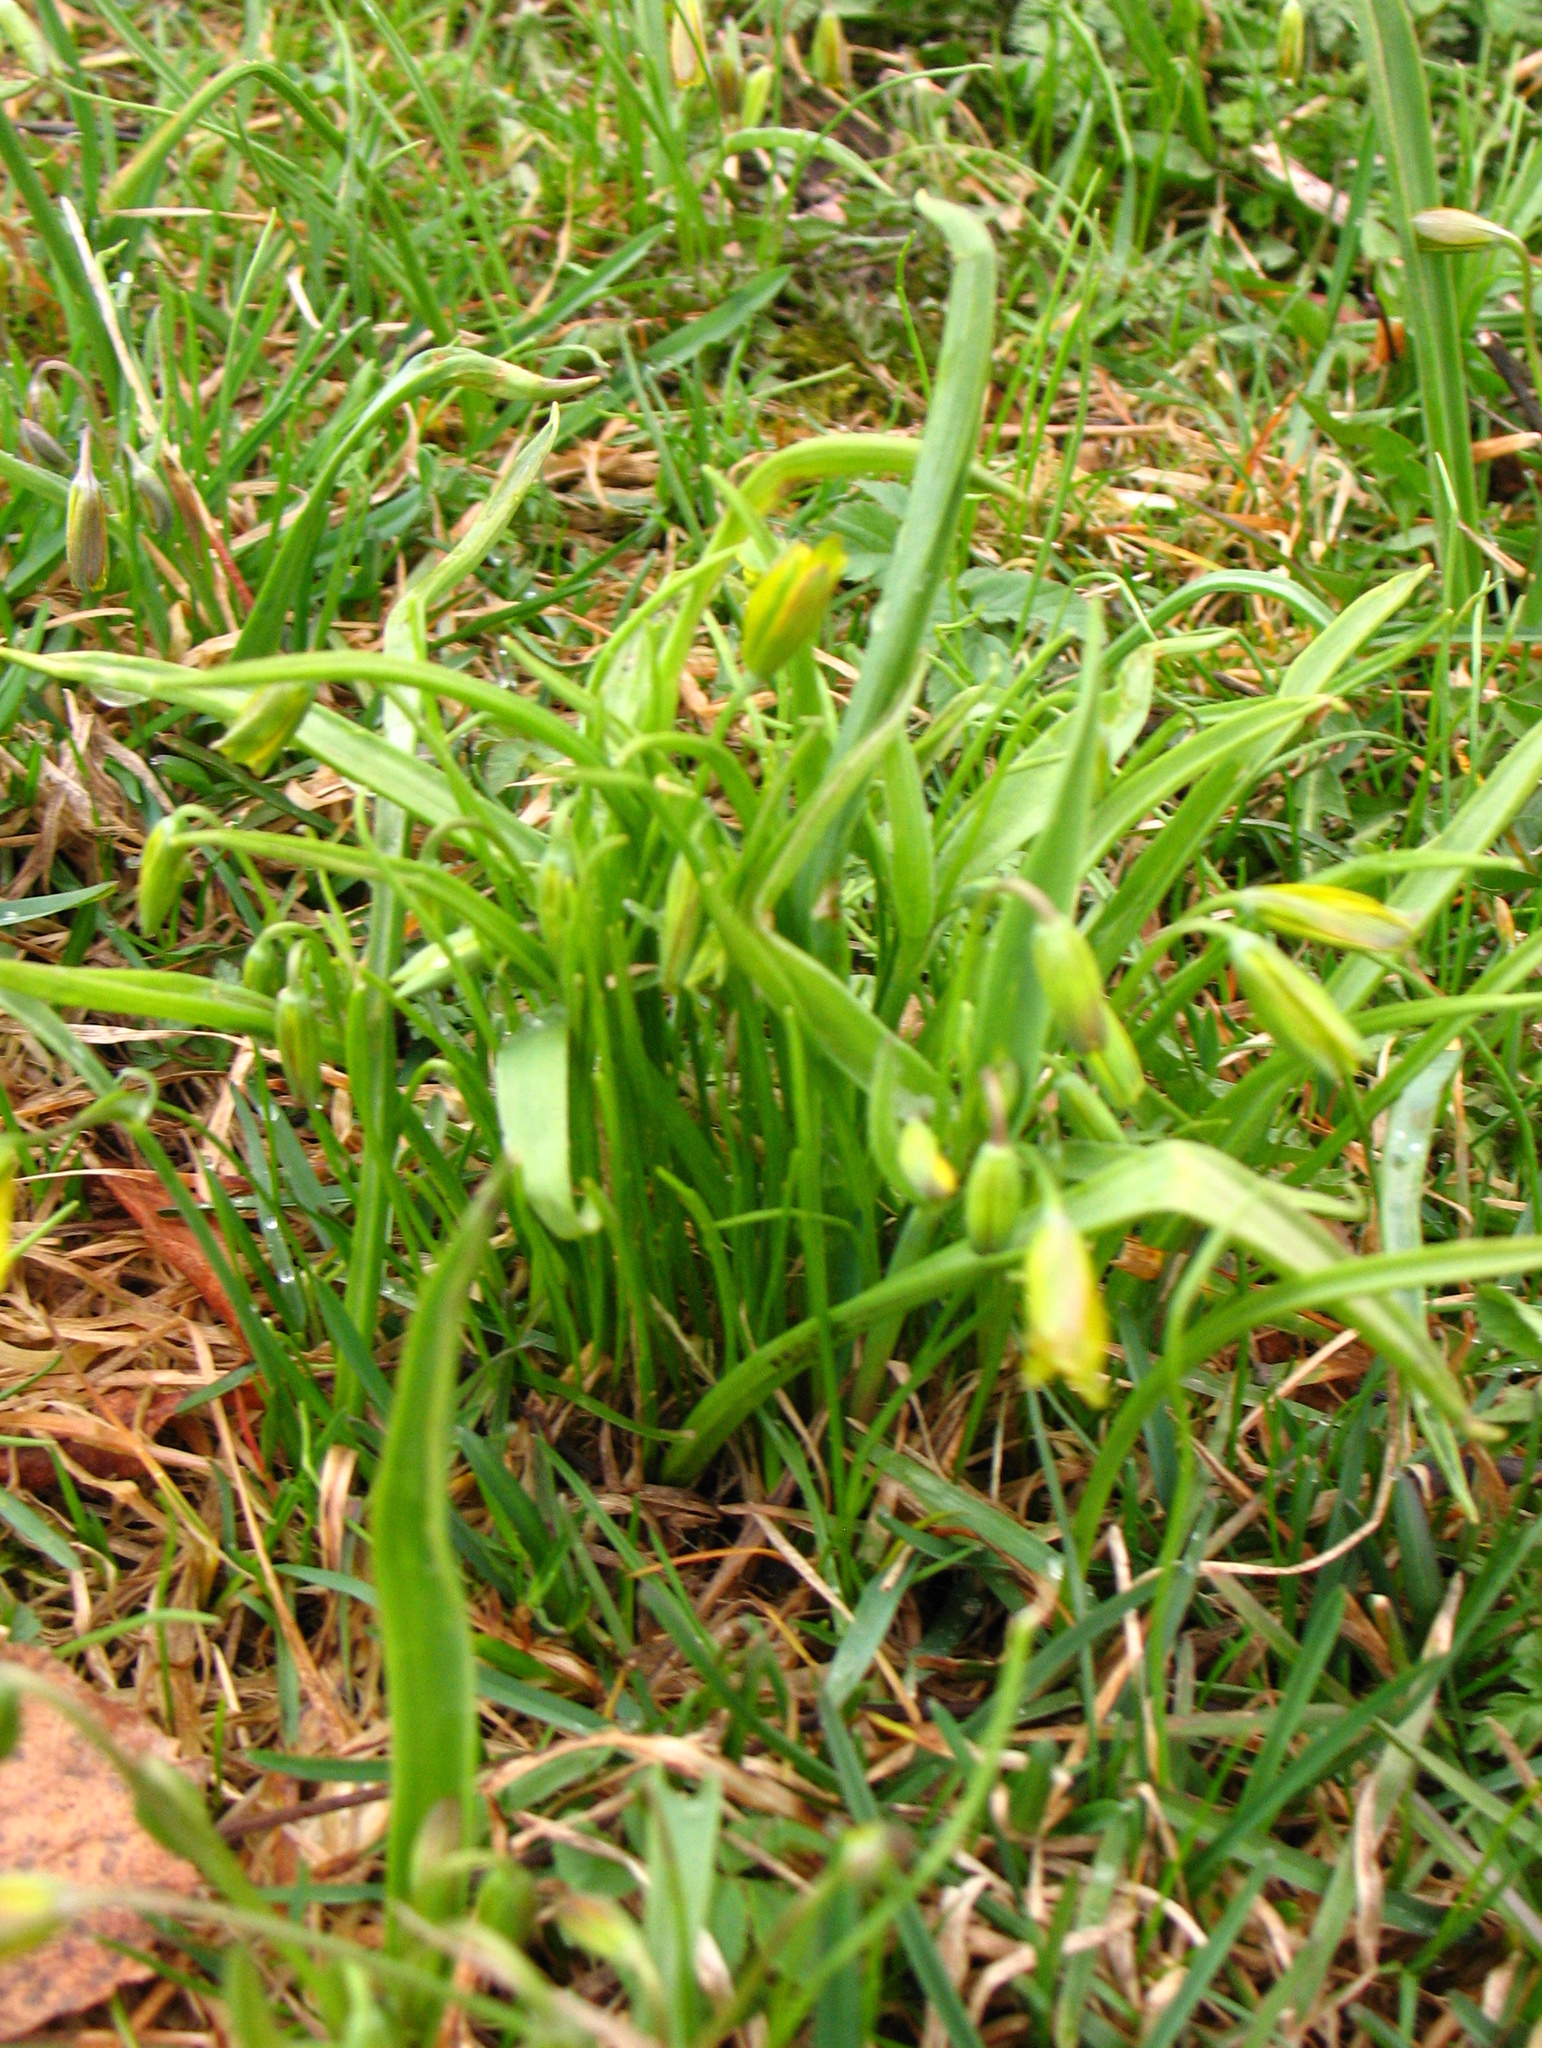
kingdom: Plantae
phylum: Tracheophyta
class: Liliopsida
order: Liliales
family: Liliaceae
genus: Gagea
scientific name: Gagea lutea
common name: Yellow star-of-bethlehem
